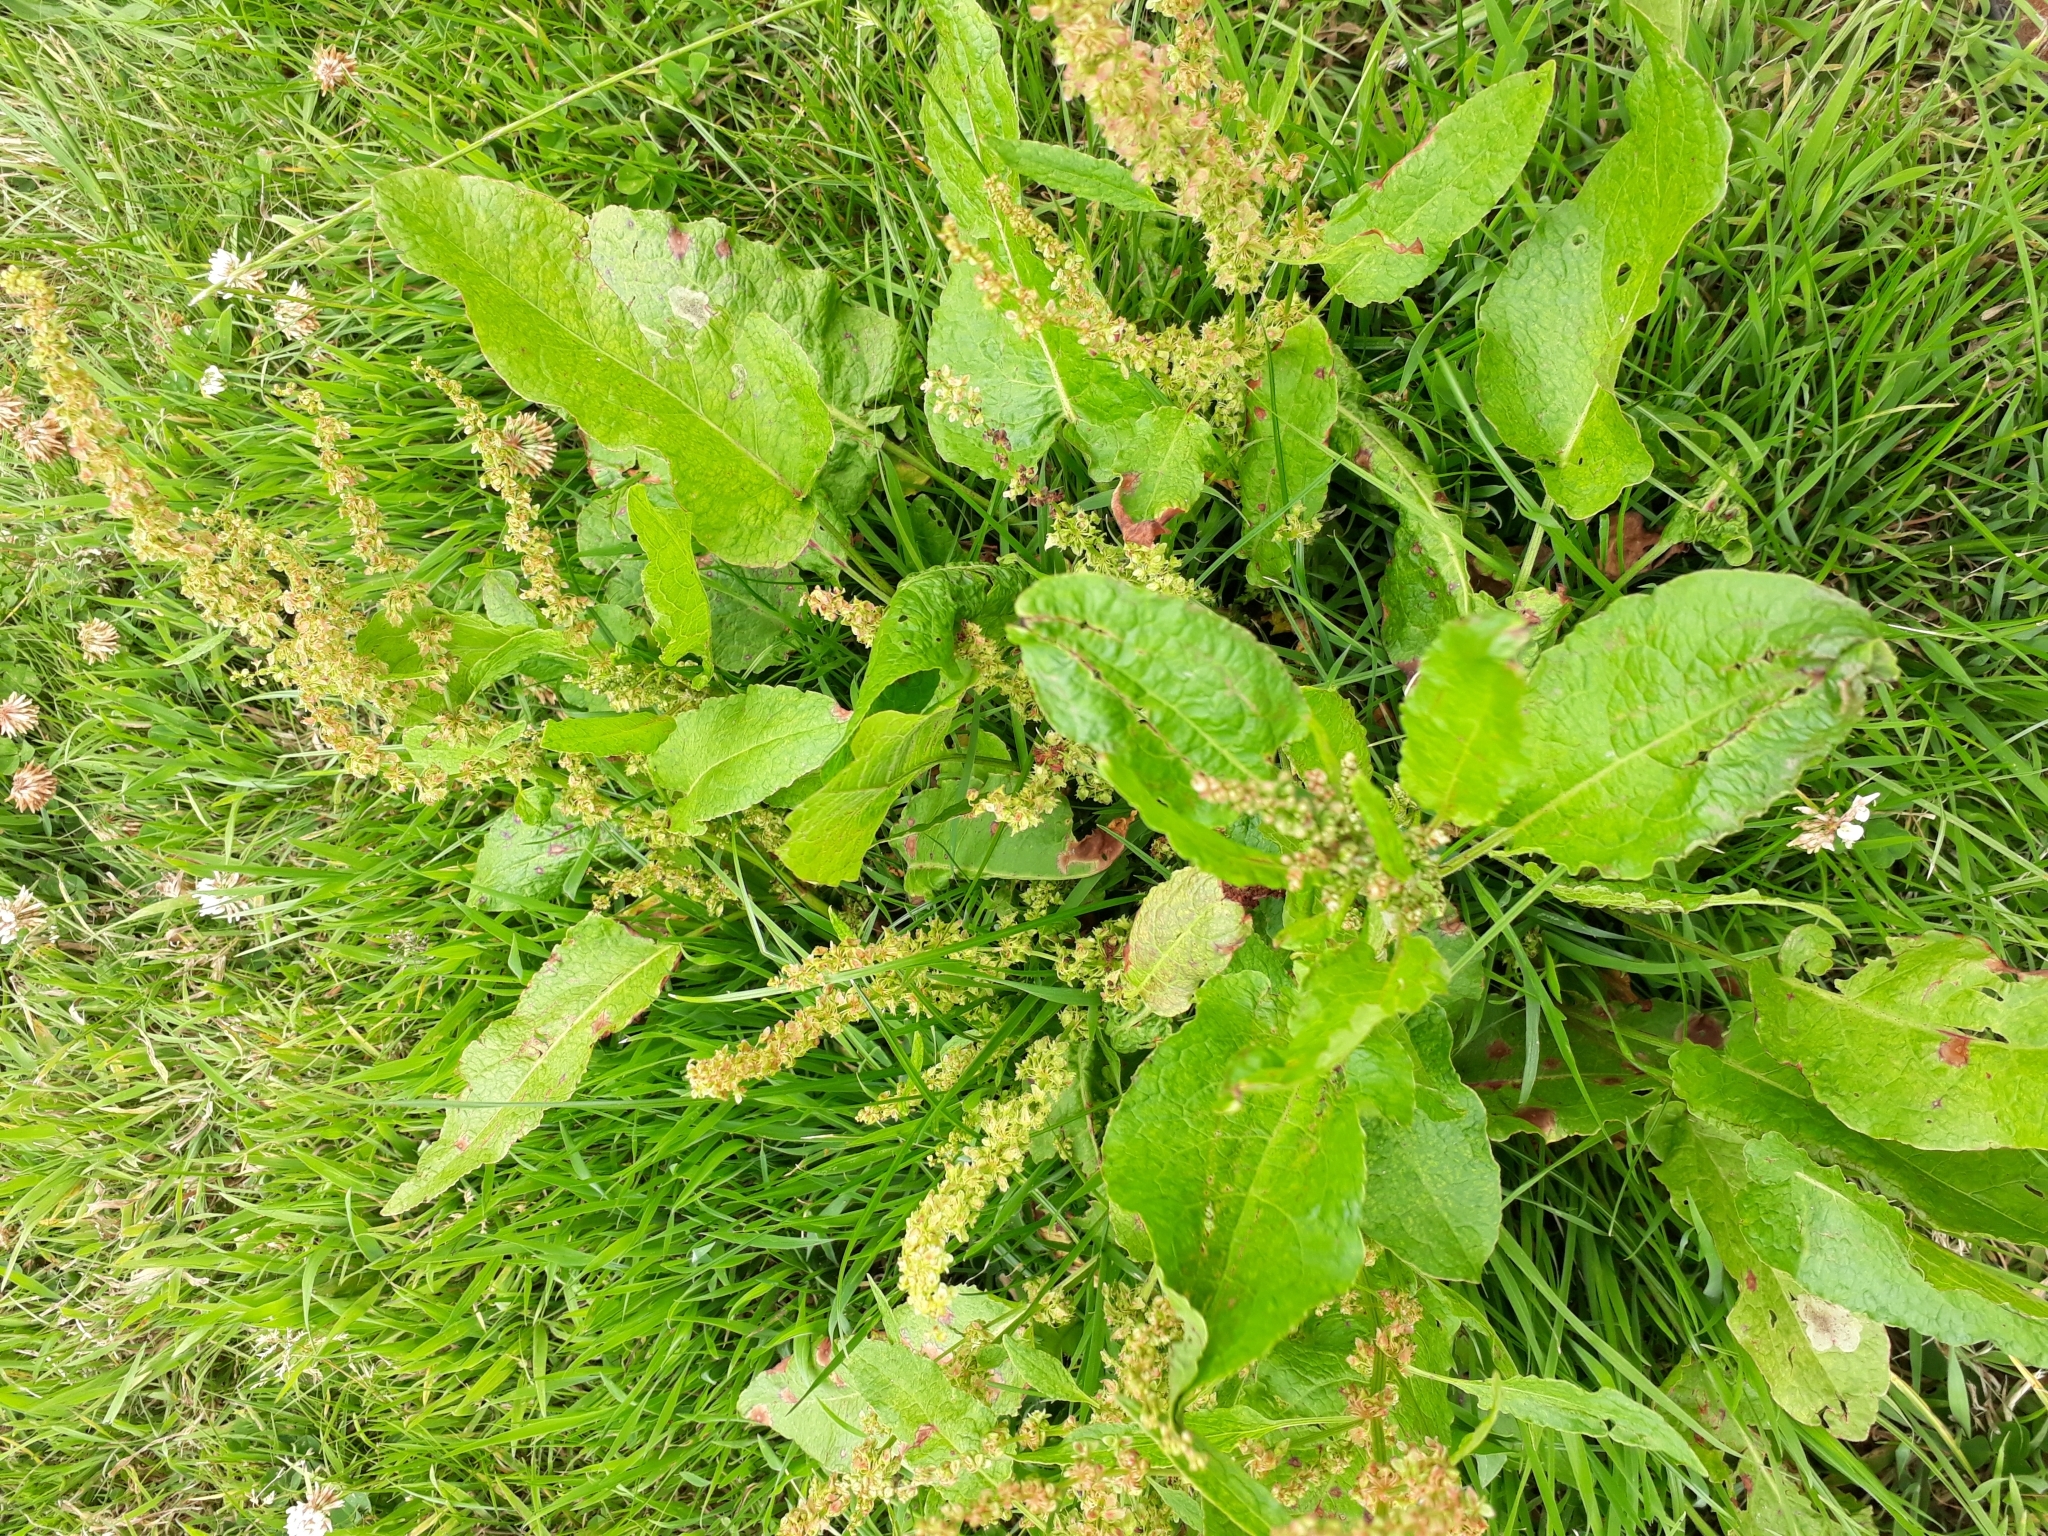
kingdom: Plantae
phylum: Tracheophyta
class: Magnoliopsida
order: Caryophyllales
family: Polygonaceae
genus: Rumex
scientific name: Rumex obtusifolius
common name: Bitter dock
